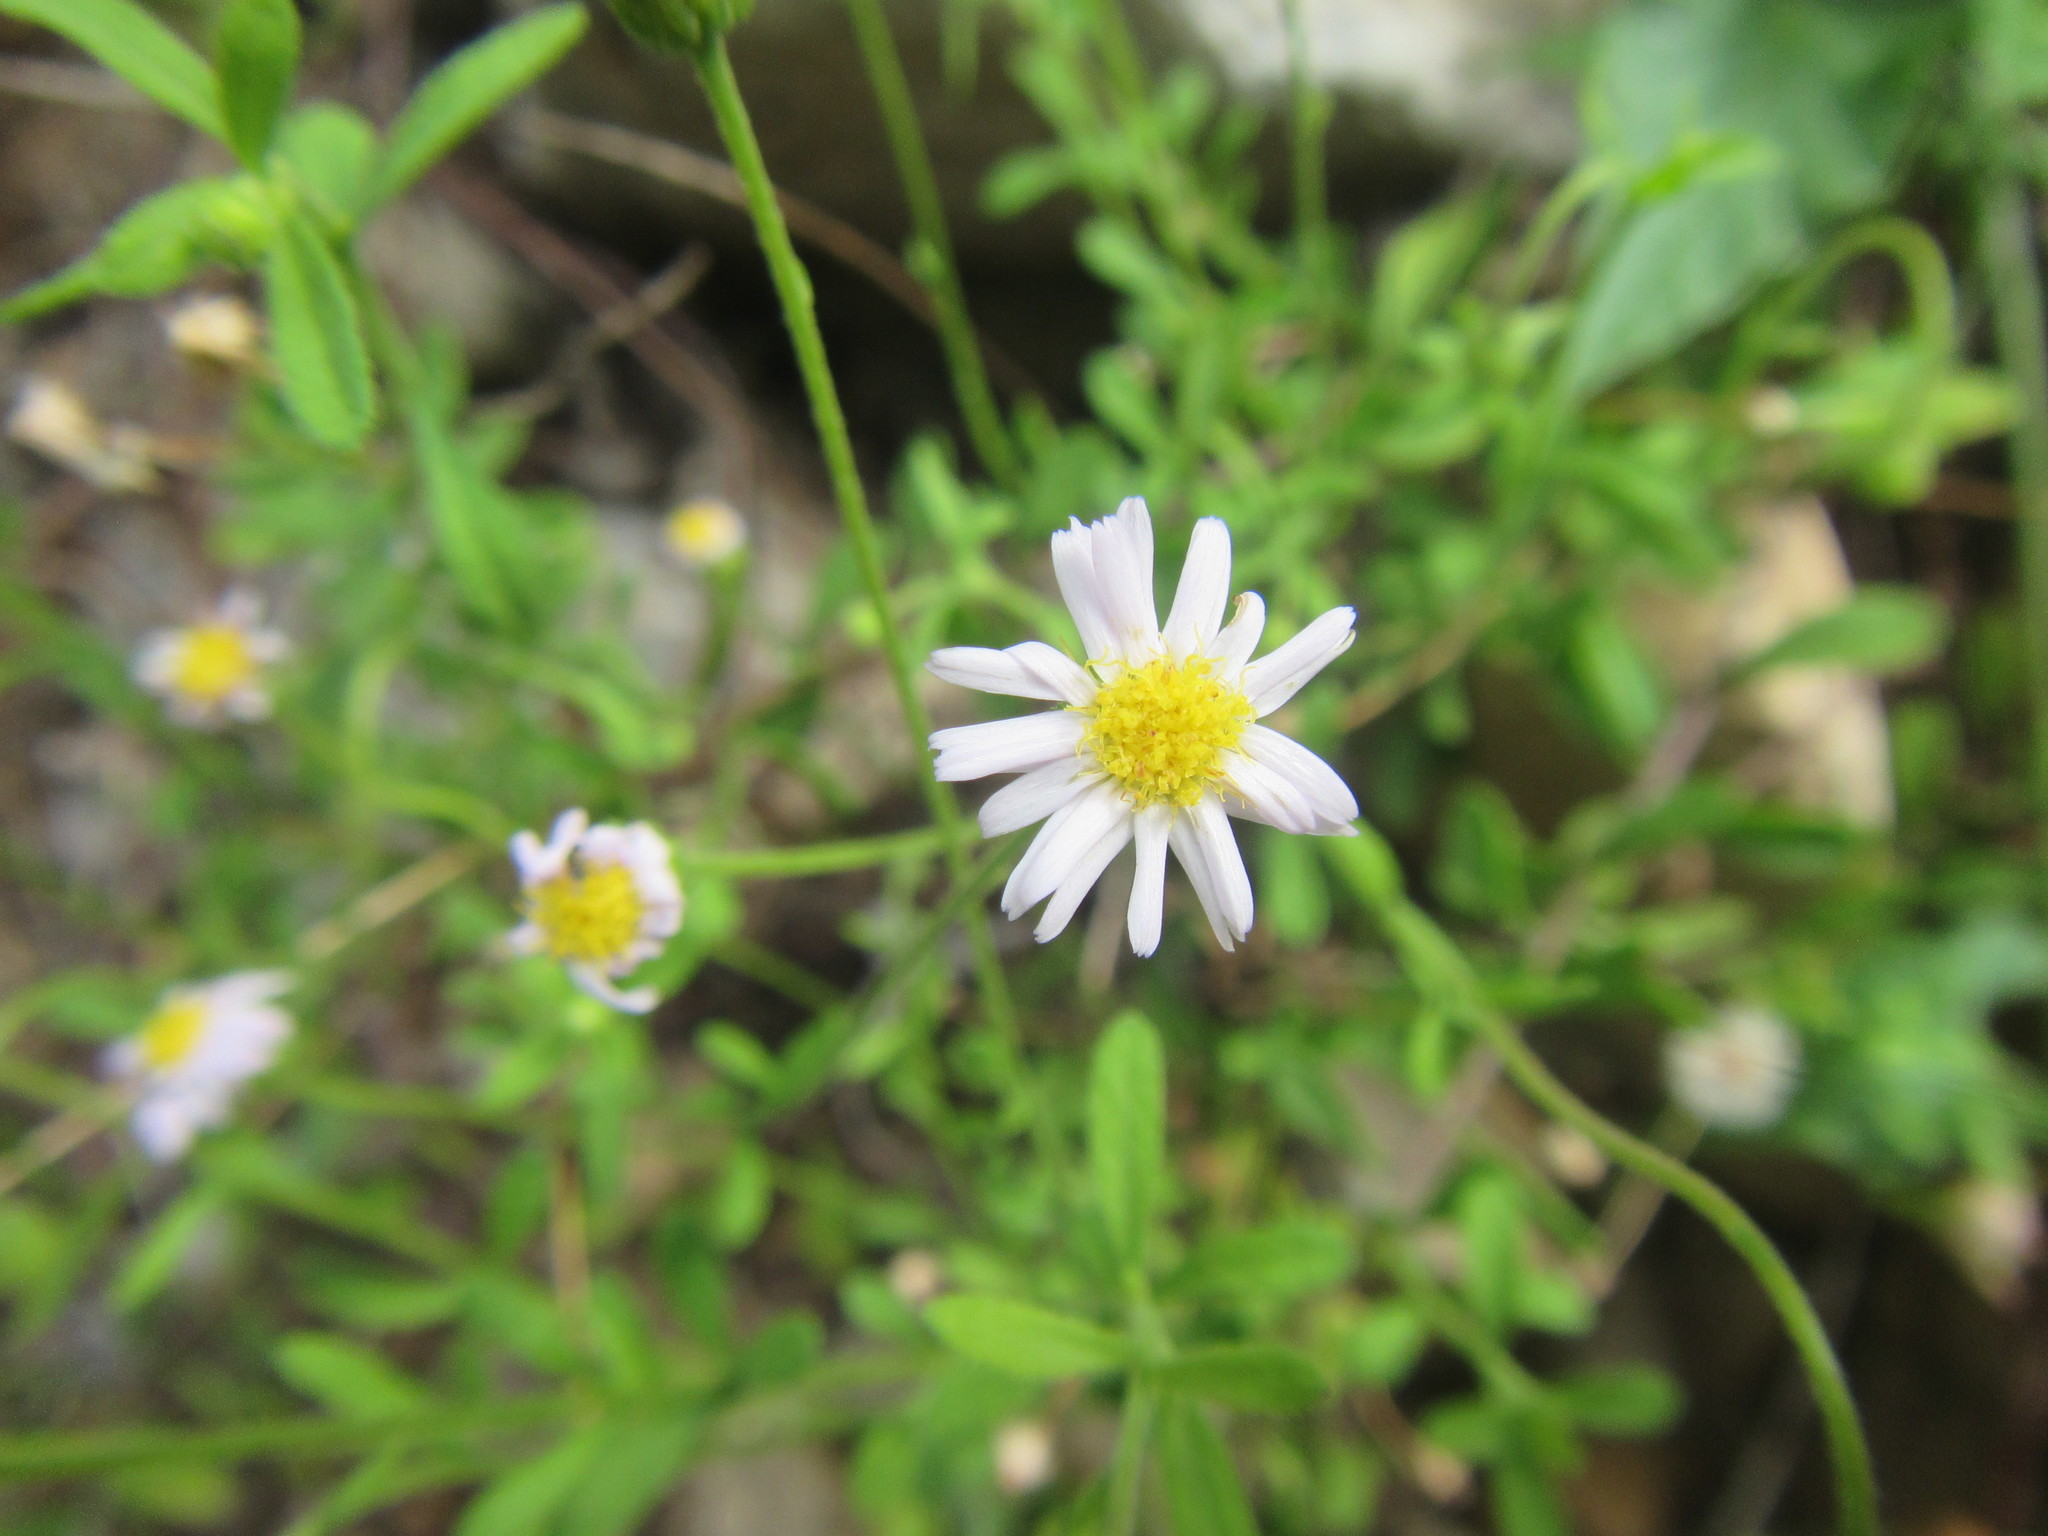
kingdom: Plantae
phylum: Tracheophyta
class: Magnoliopsida
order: Asterales
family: Asteraceae
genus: Felicia
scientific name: Felicia microcephala
